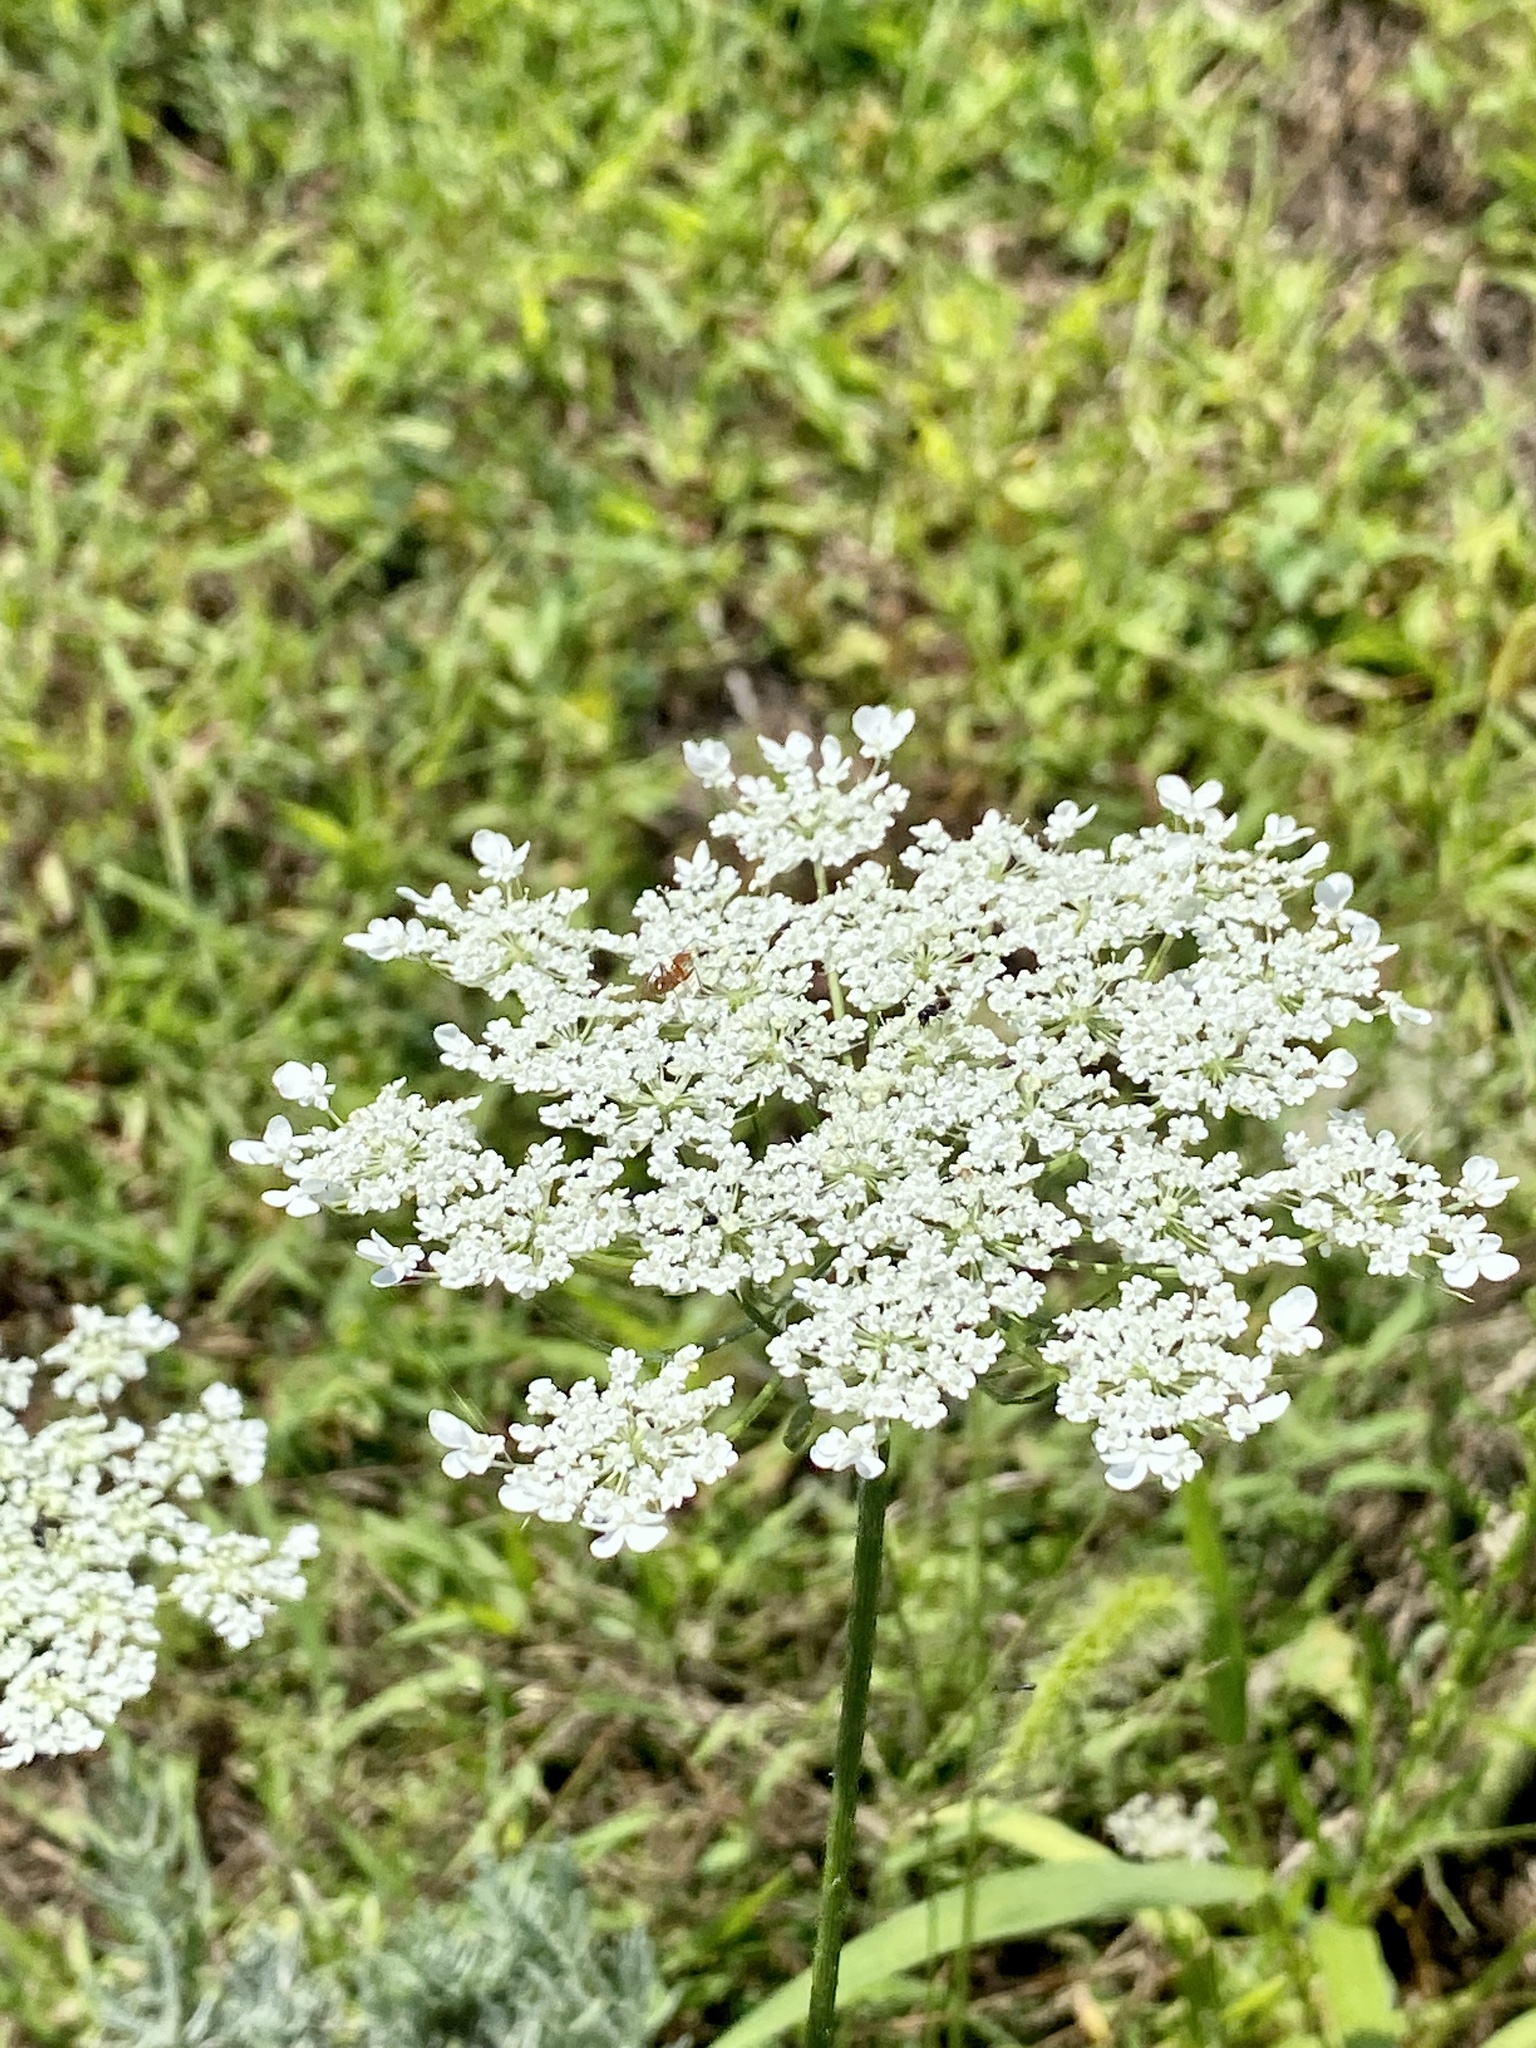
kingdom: Plantae
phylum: Tracheophyta
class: Magnoliopsida
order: Apiales
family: Apiaceae
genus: Daucus
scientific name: Daucus carota
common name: Wild carrot
